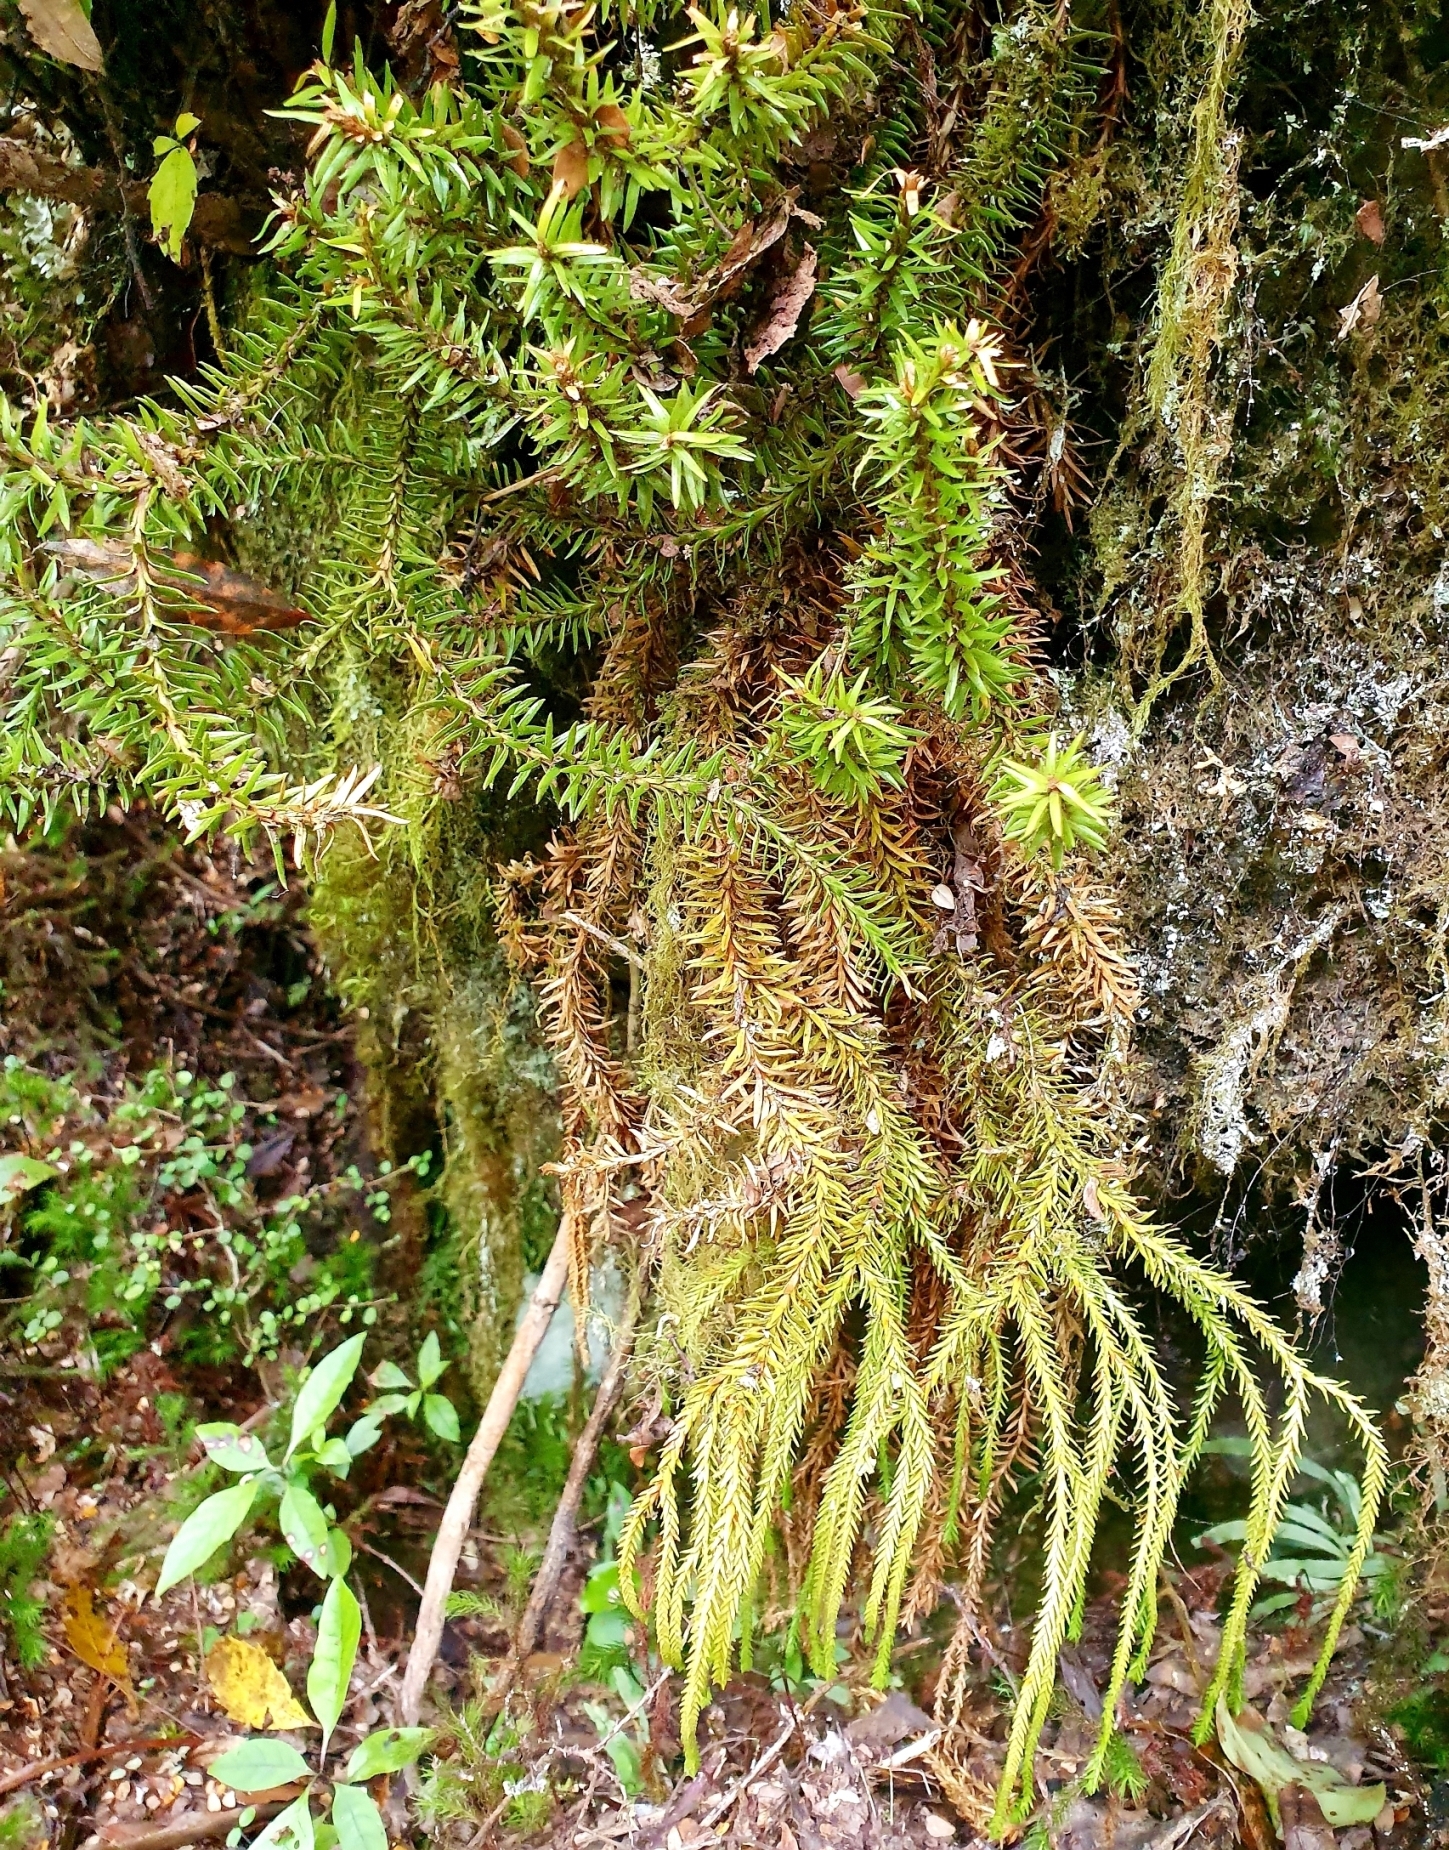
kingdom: Plantae
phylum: Tracheophyta
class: Lycopodiopsida
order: Lycopodiales
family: Lycopodiaceae
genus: Phlegmariurus
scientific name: Phlegmariurus varius
